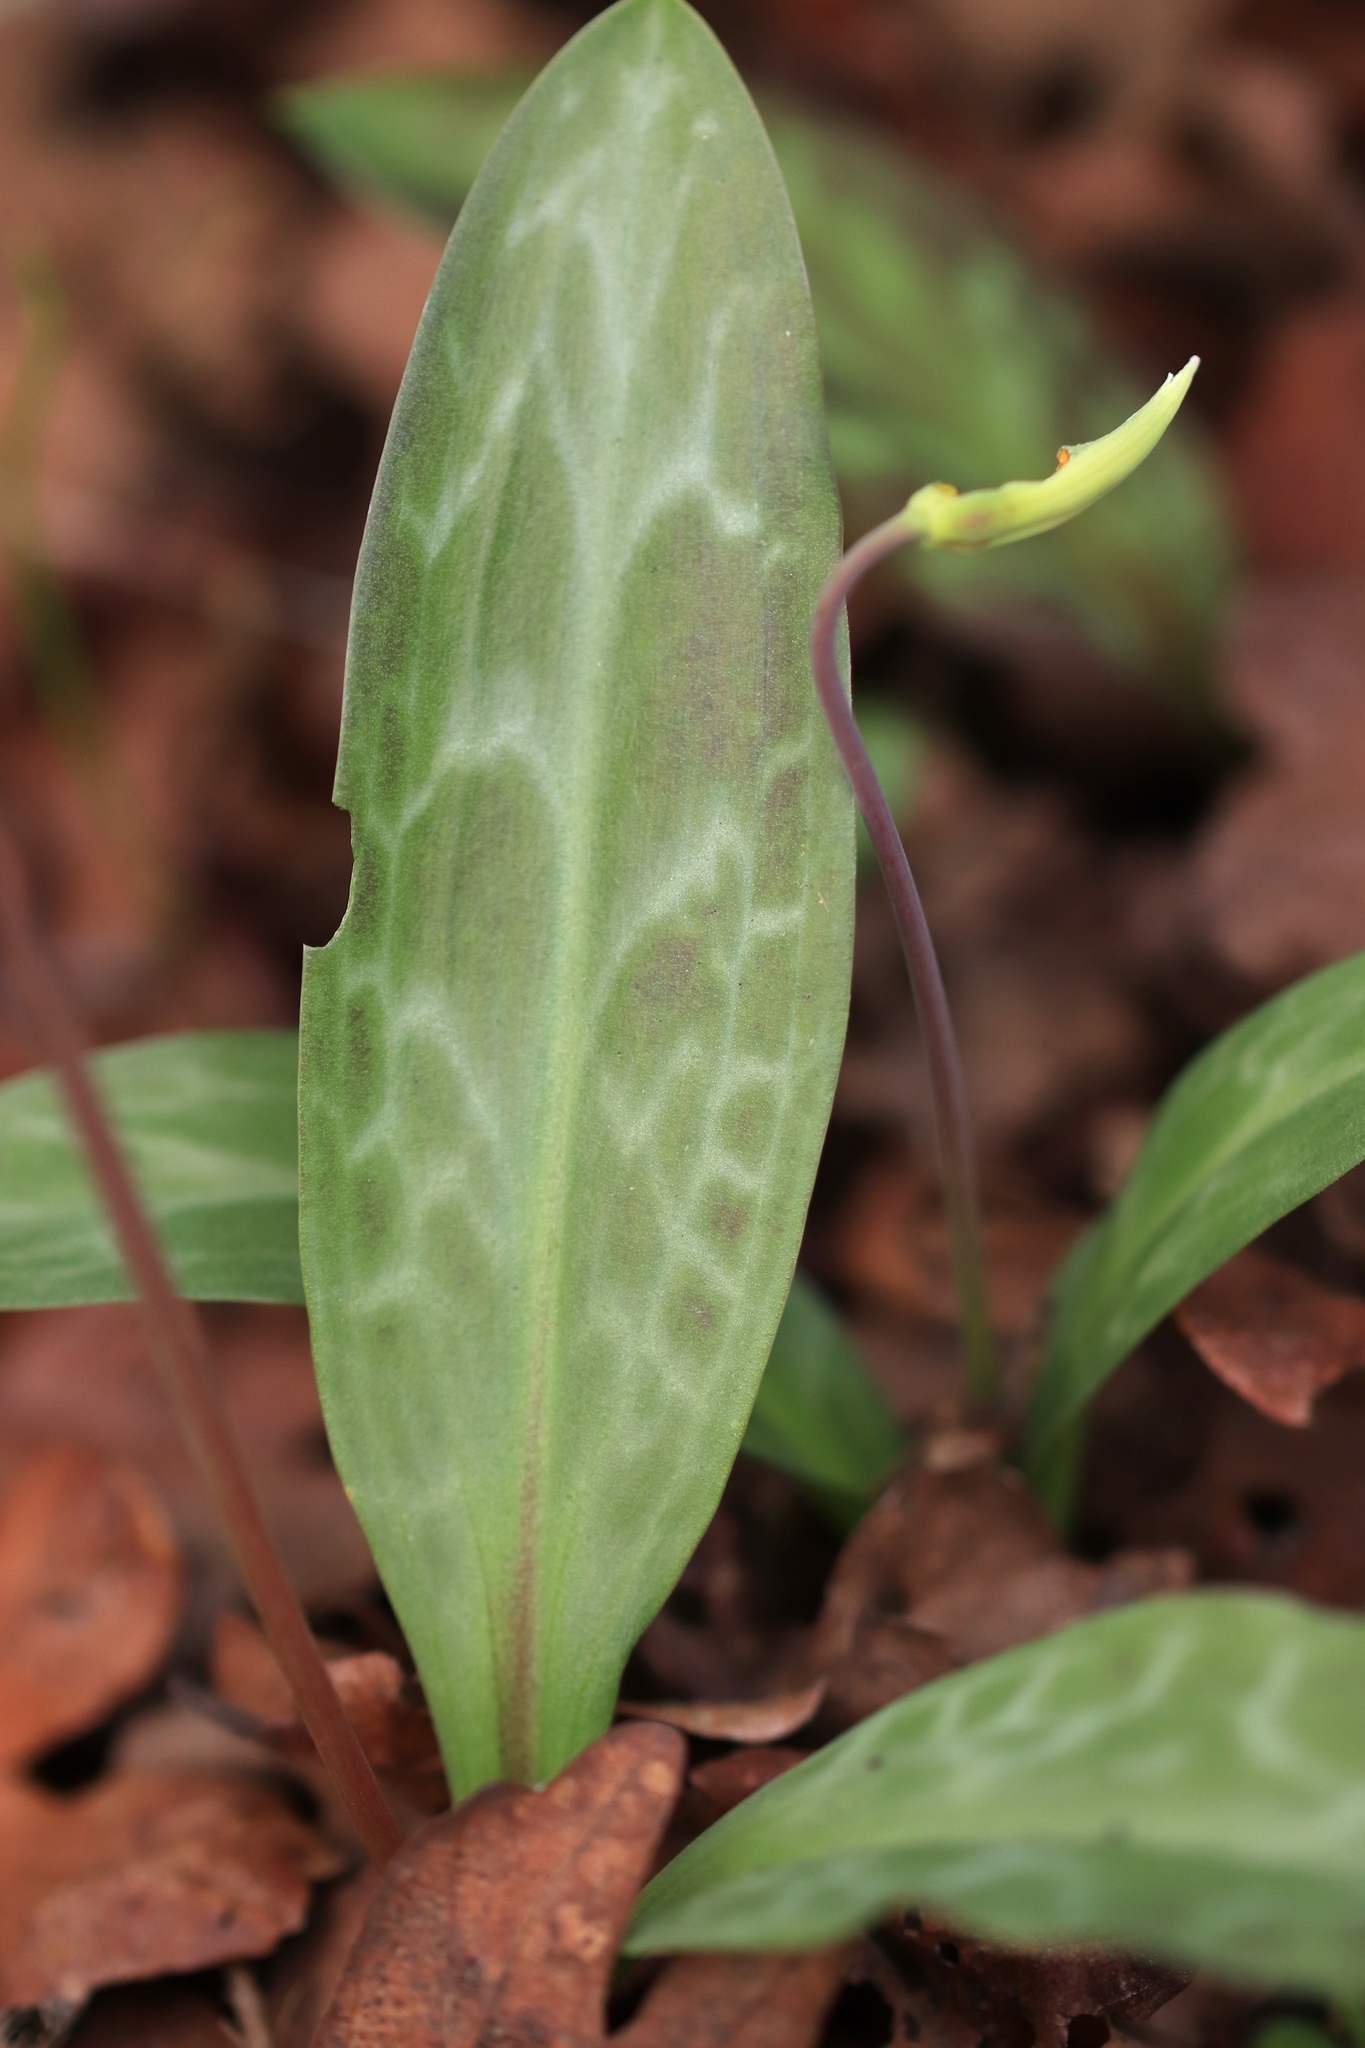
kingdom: Plantae
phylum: Tracheophyta
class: Liliopsida
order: Liliales
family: Liliaceae
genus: Erythronium
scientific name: Erythronium oregonum
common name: Giant adder's-tongue
